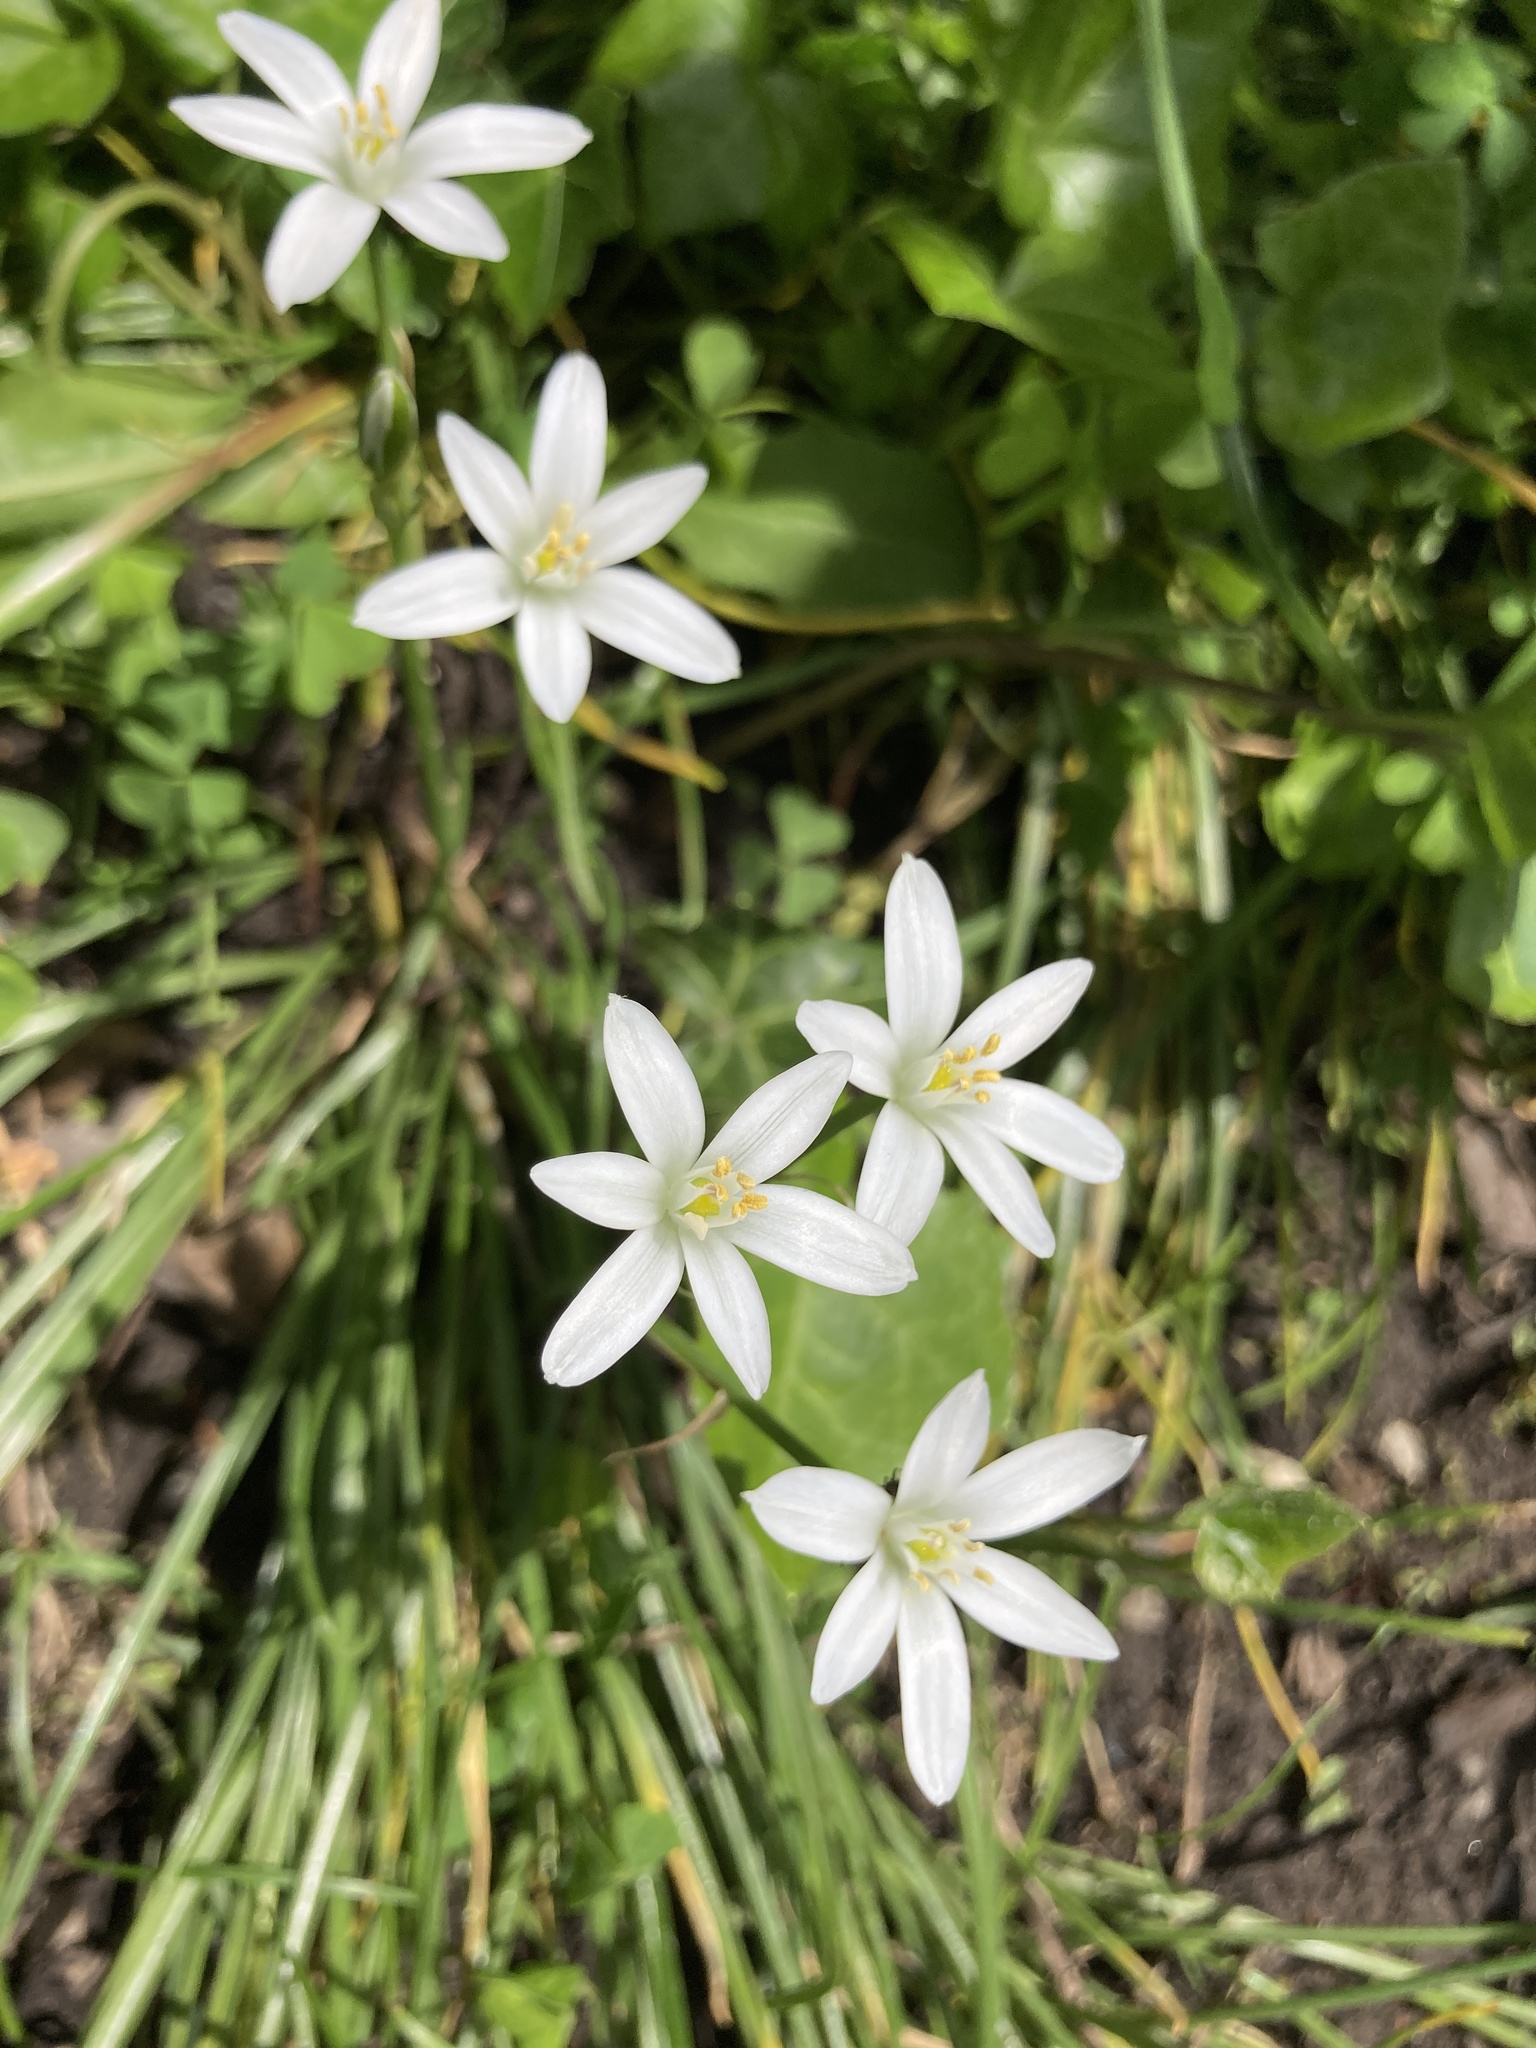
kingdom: Plantae
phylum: Tracheophyta
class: Liliopsida
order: Asparagales
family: Asparagaceae
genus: Ornithogalum
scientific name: Ornithogalum umbellatum
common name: Garden star-of-bethlehem
